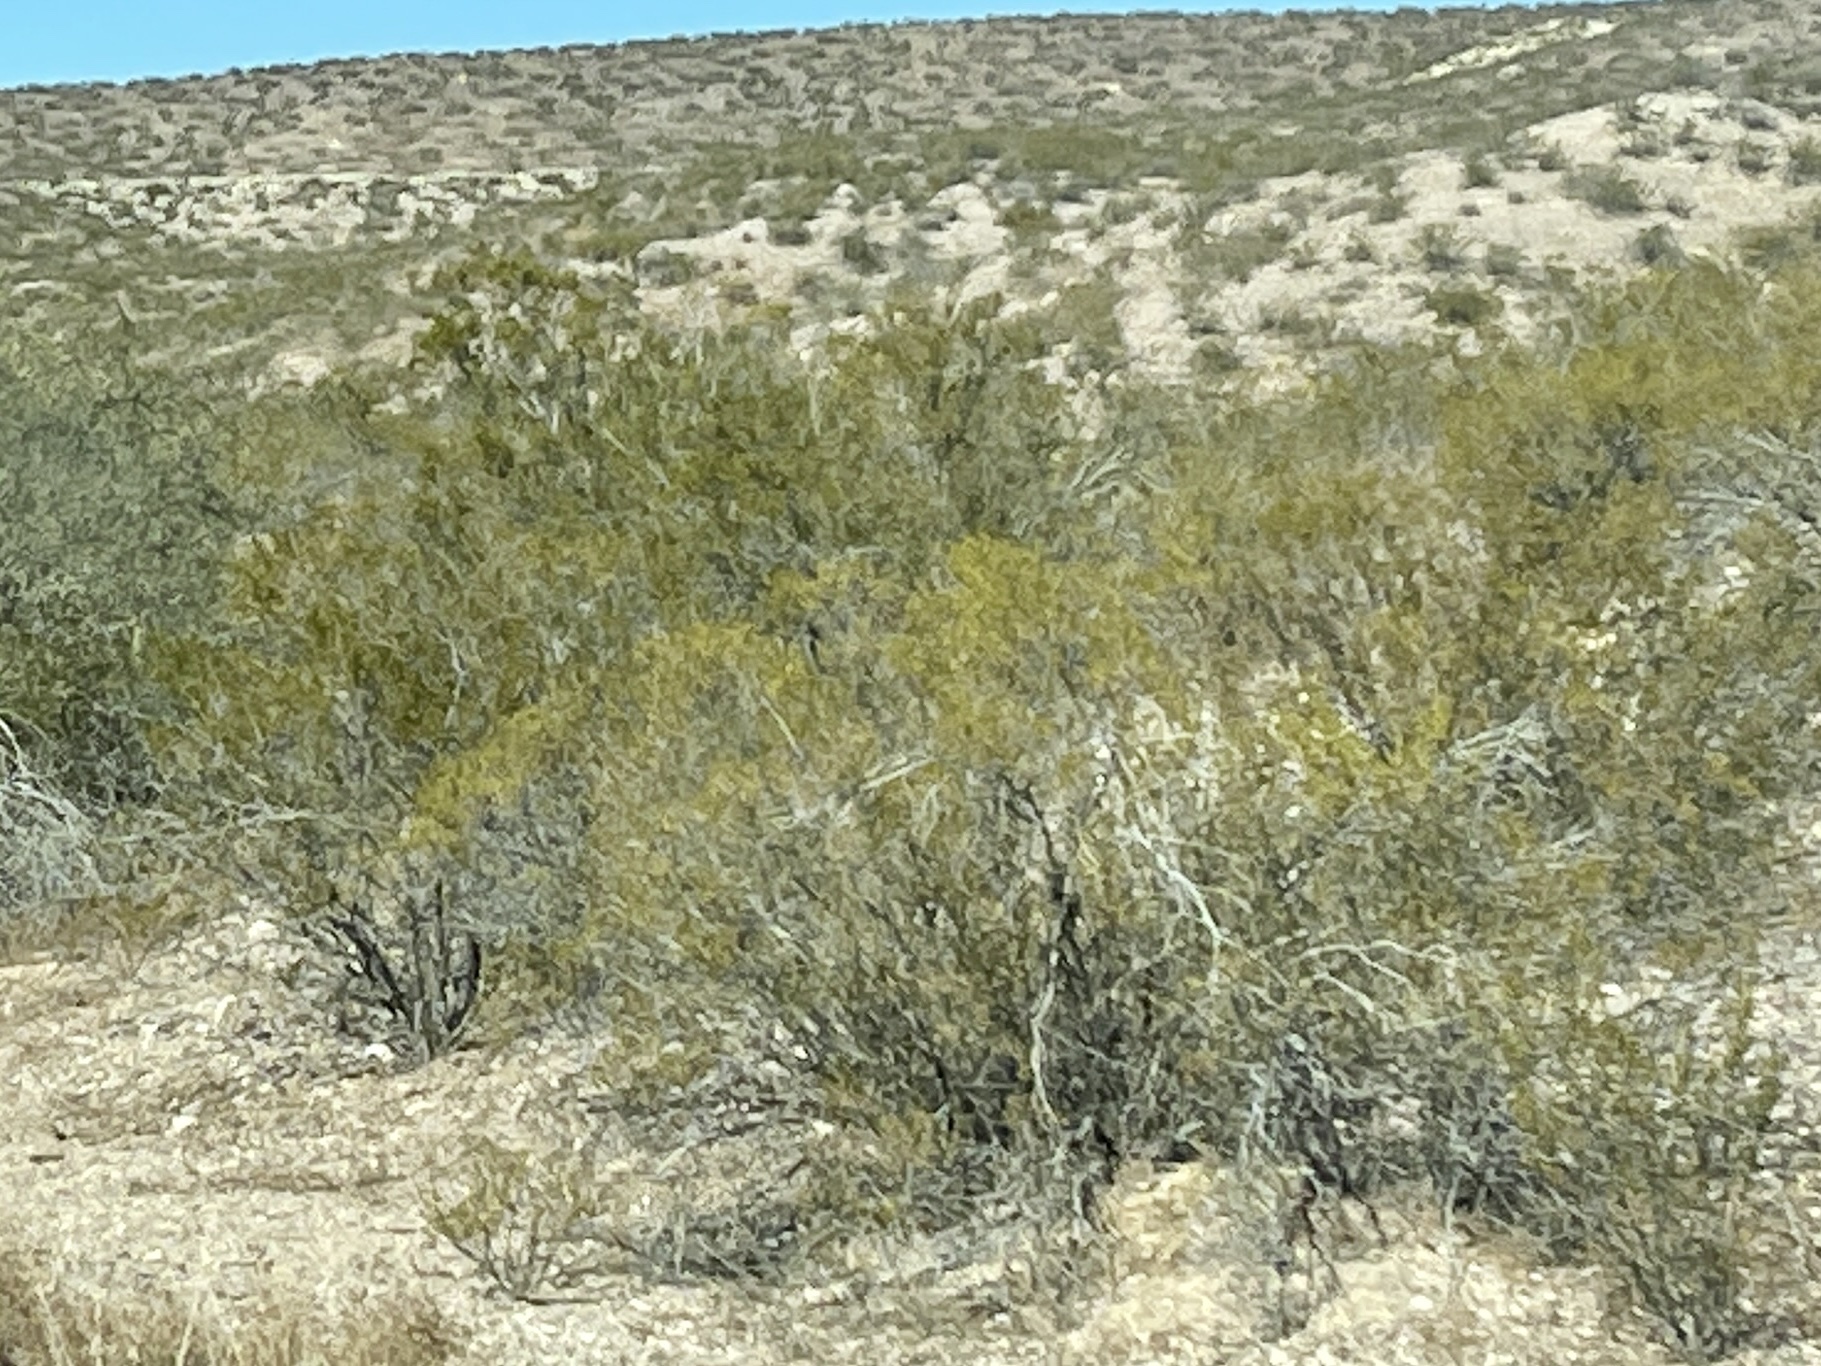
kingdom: Plantae
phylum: Tracheophyta
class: Magnoliopsida
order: Zygophyllales
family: Zygophyllaceae
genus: Larrea
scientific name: Larrea tridentata
